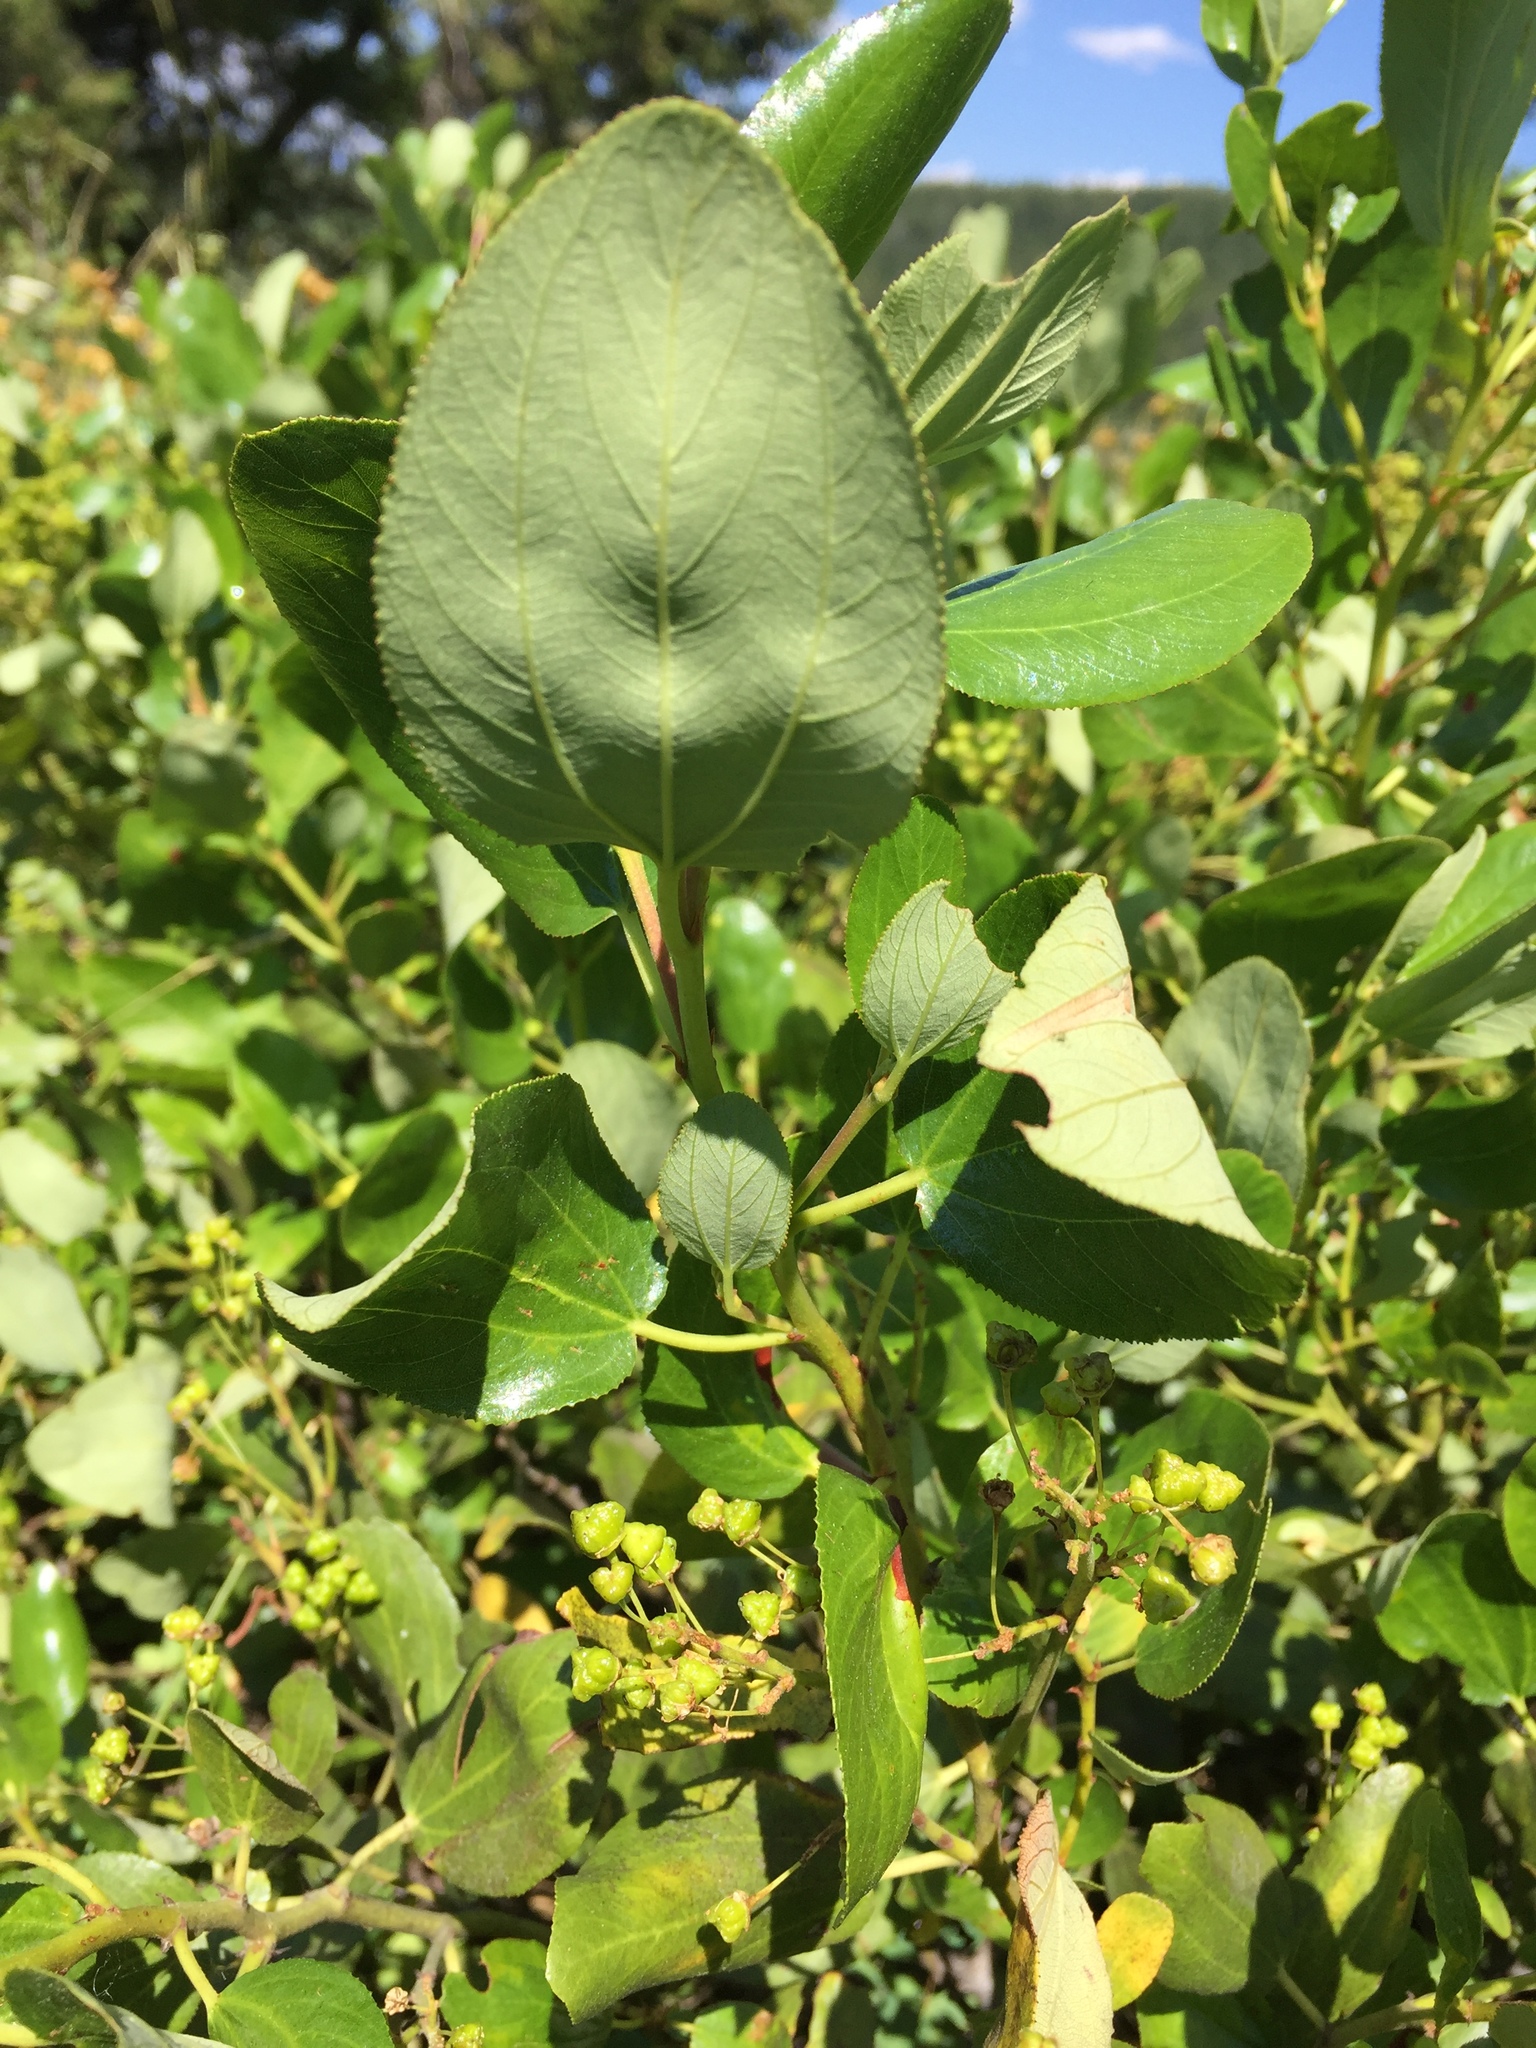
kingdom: Plantae
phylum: Tracheophyta
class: Magnoliopsida
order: Rosales
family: Rhamnaceae
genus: Ceanothus
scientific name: Ceanothus velutinus
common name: Snowbrush
